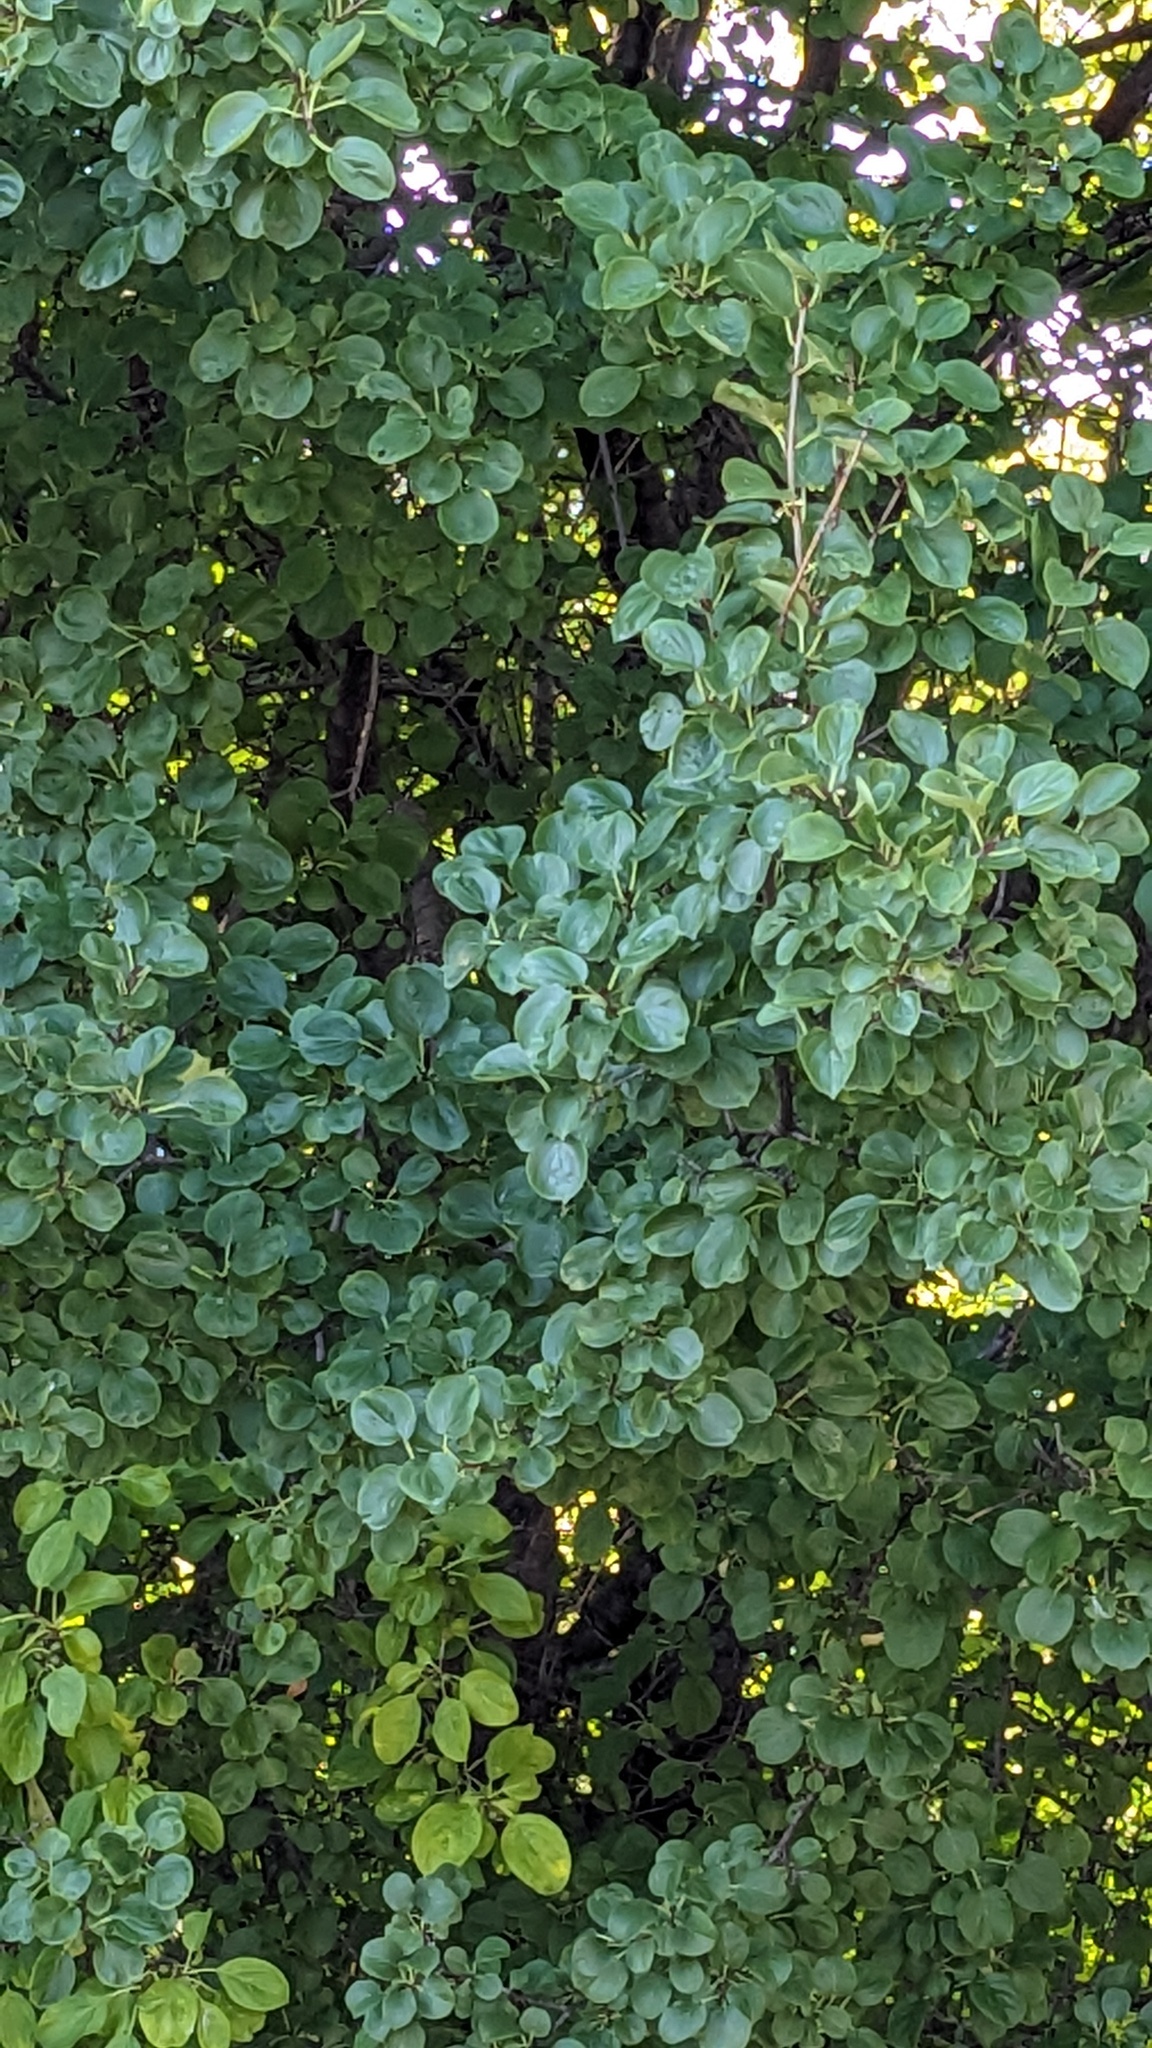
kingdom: Plantae
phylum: Tracheophyta
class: Magnoliopsida
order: Rosales
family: Rhamnaceae
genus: Rhamnus
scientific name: Rhamnus cathartica
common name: Common buckthorn
